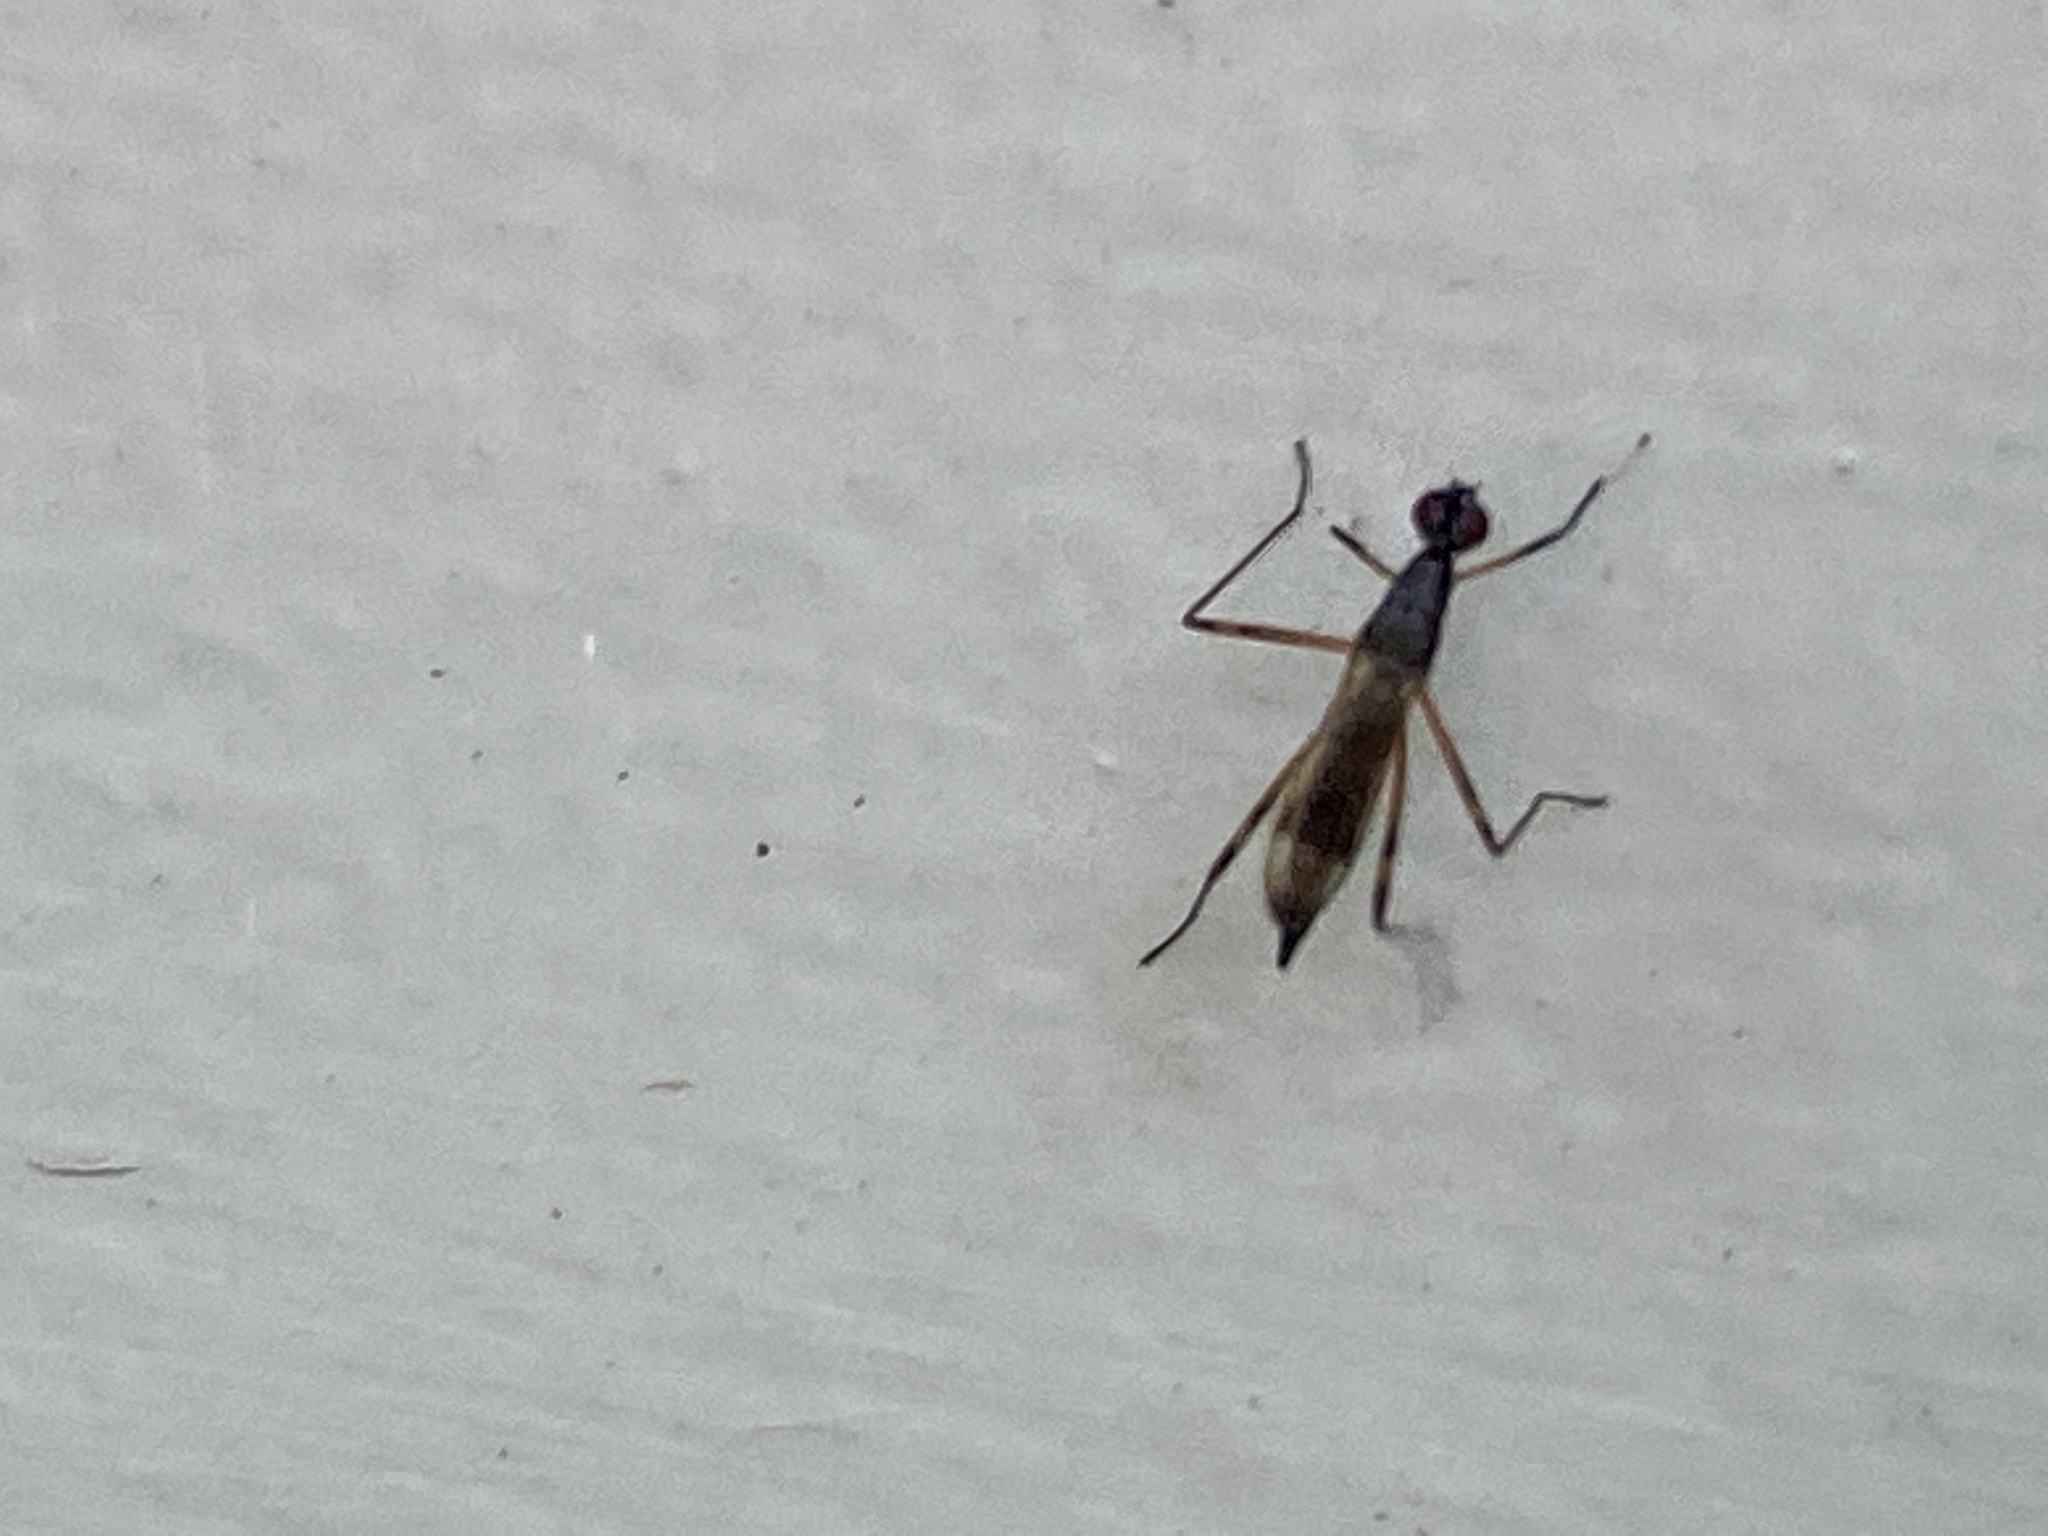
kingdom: Animalia
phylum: Arthropoda
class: Insecta
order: Diptera
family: Micropezidae
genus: Rainieria
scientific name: Rainieria antennaepes
